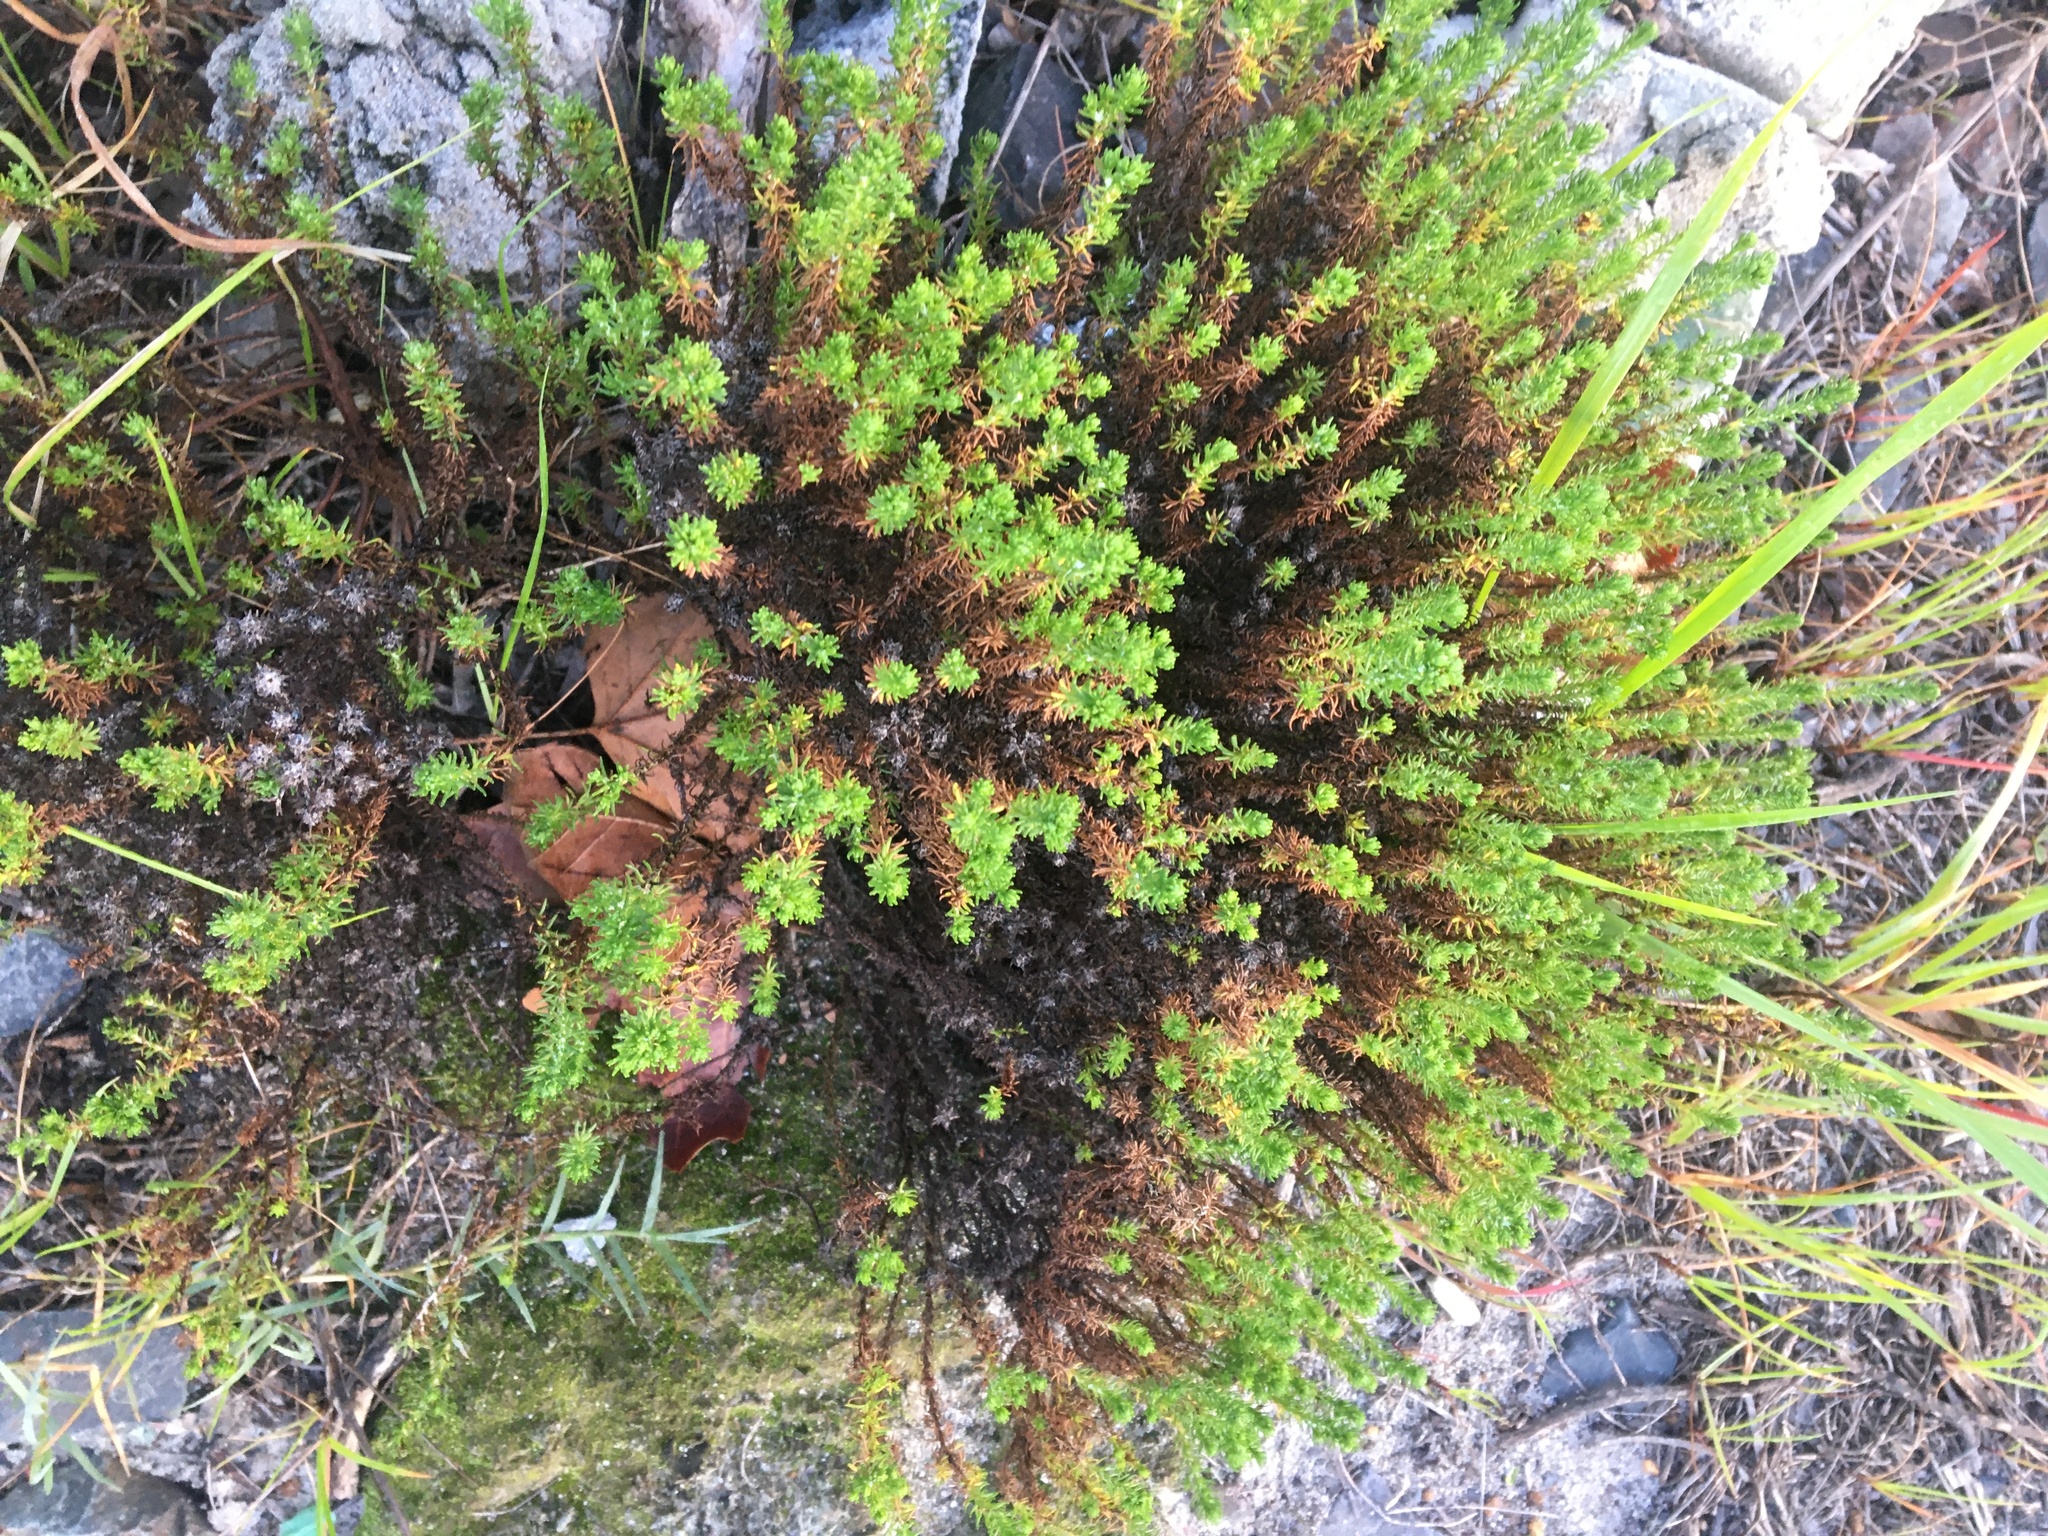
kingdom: Plantae
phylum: Tracheophyta
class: Magnoliopsida
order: Asterales
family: Asteraceae
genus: Helichrysum
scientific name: Helichrysum niveum
